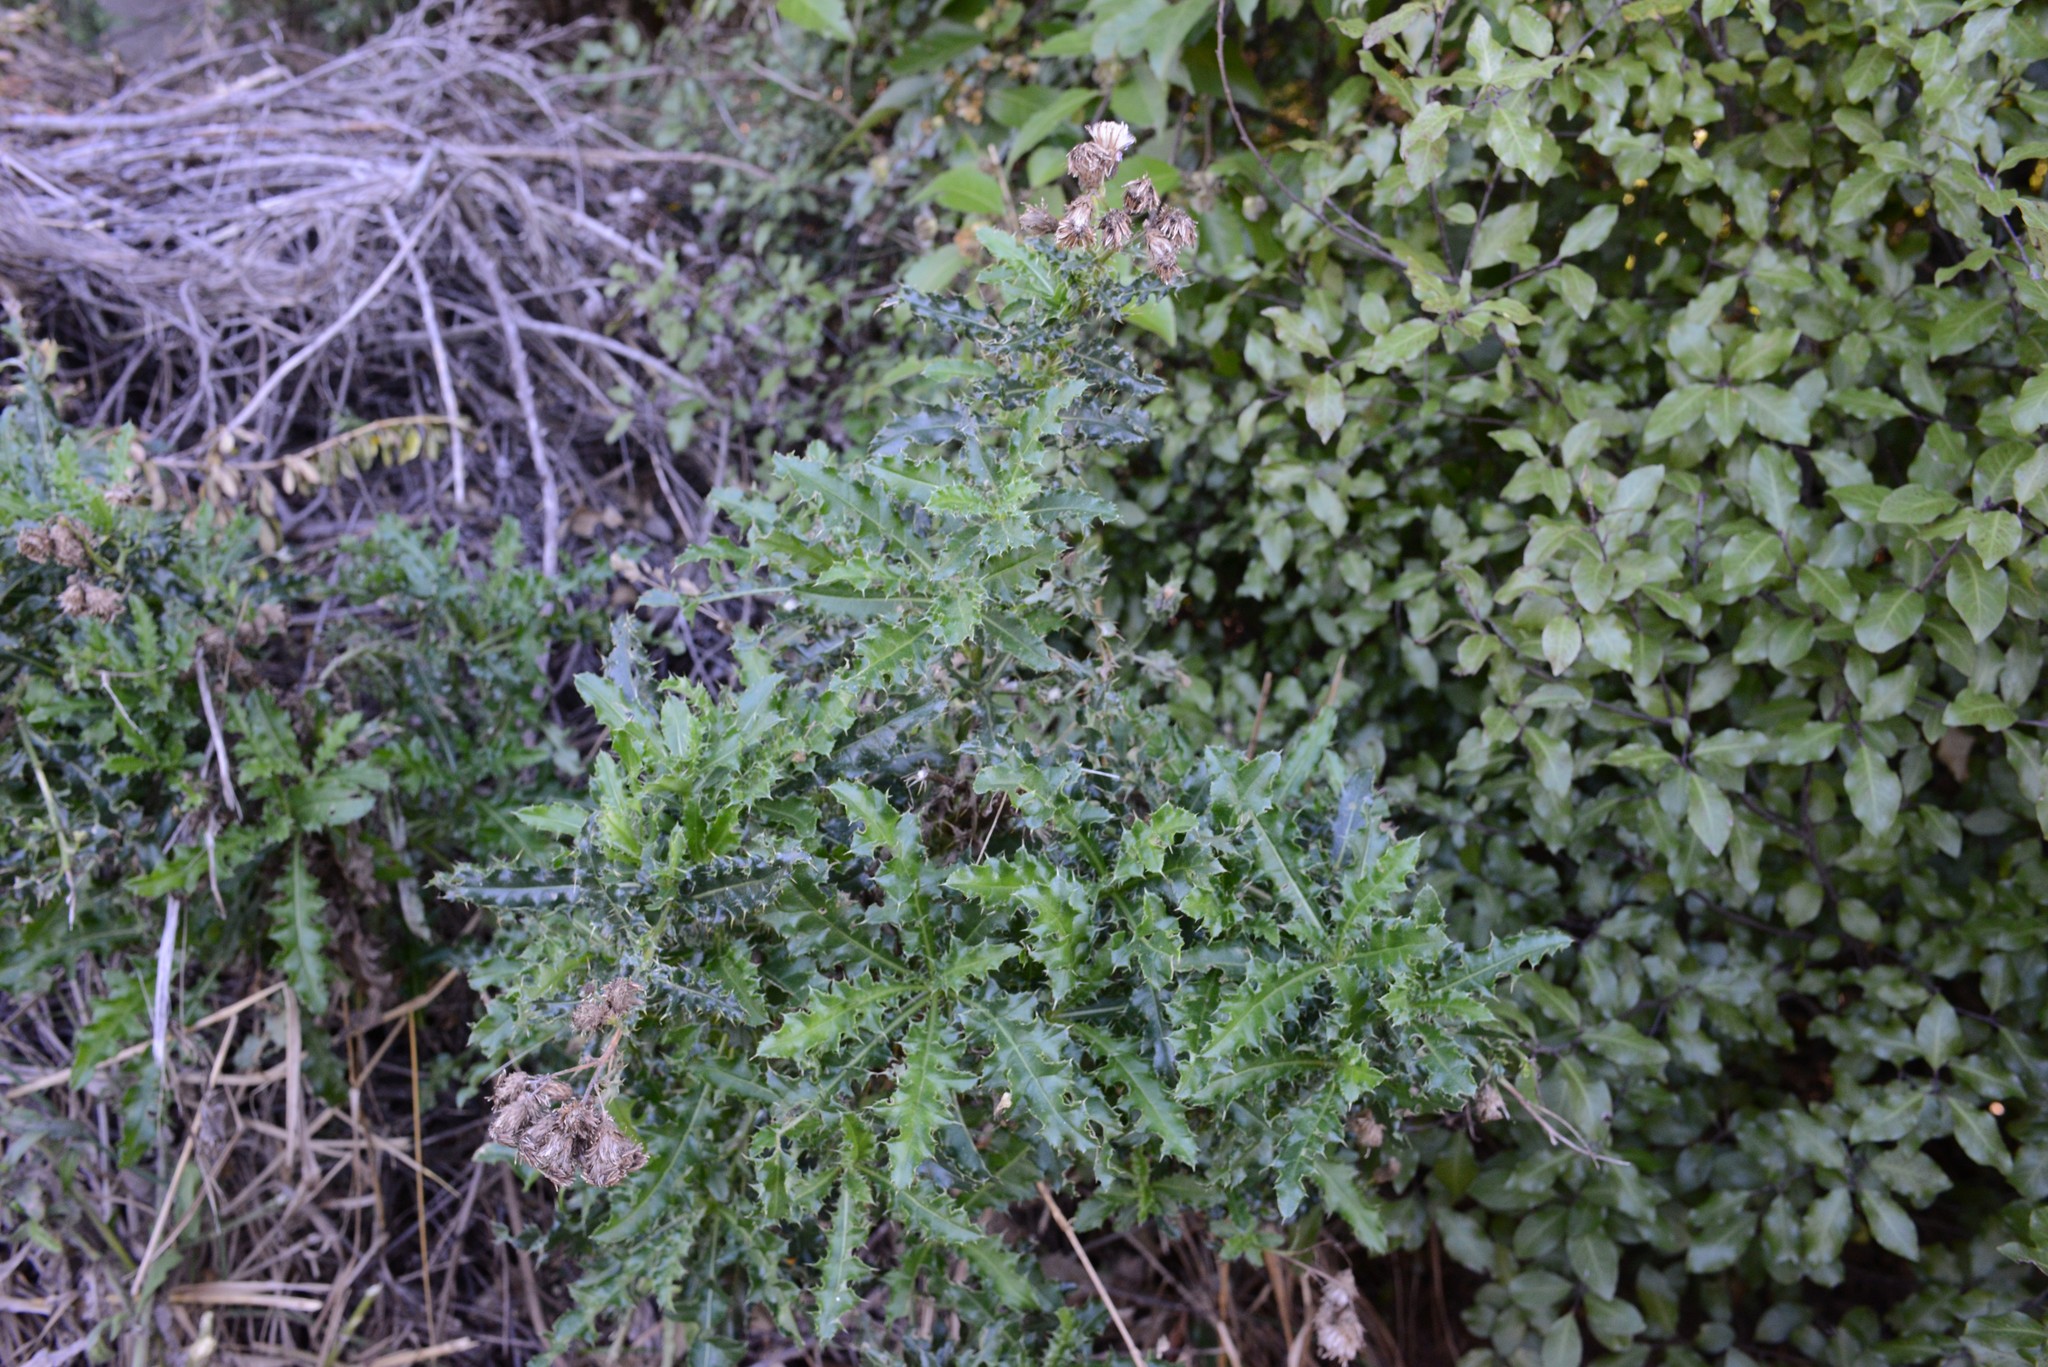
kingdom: Plantae
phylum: Tracheophyta
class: Magnoliopsida
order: Asterales
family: Asteraceae
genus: Cirsium
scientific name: Cirsium arvense
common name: Creeping thistle
